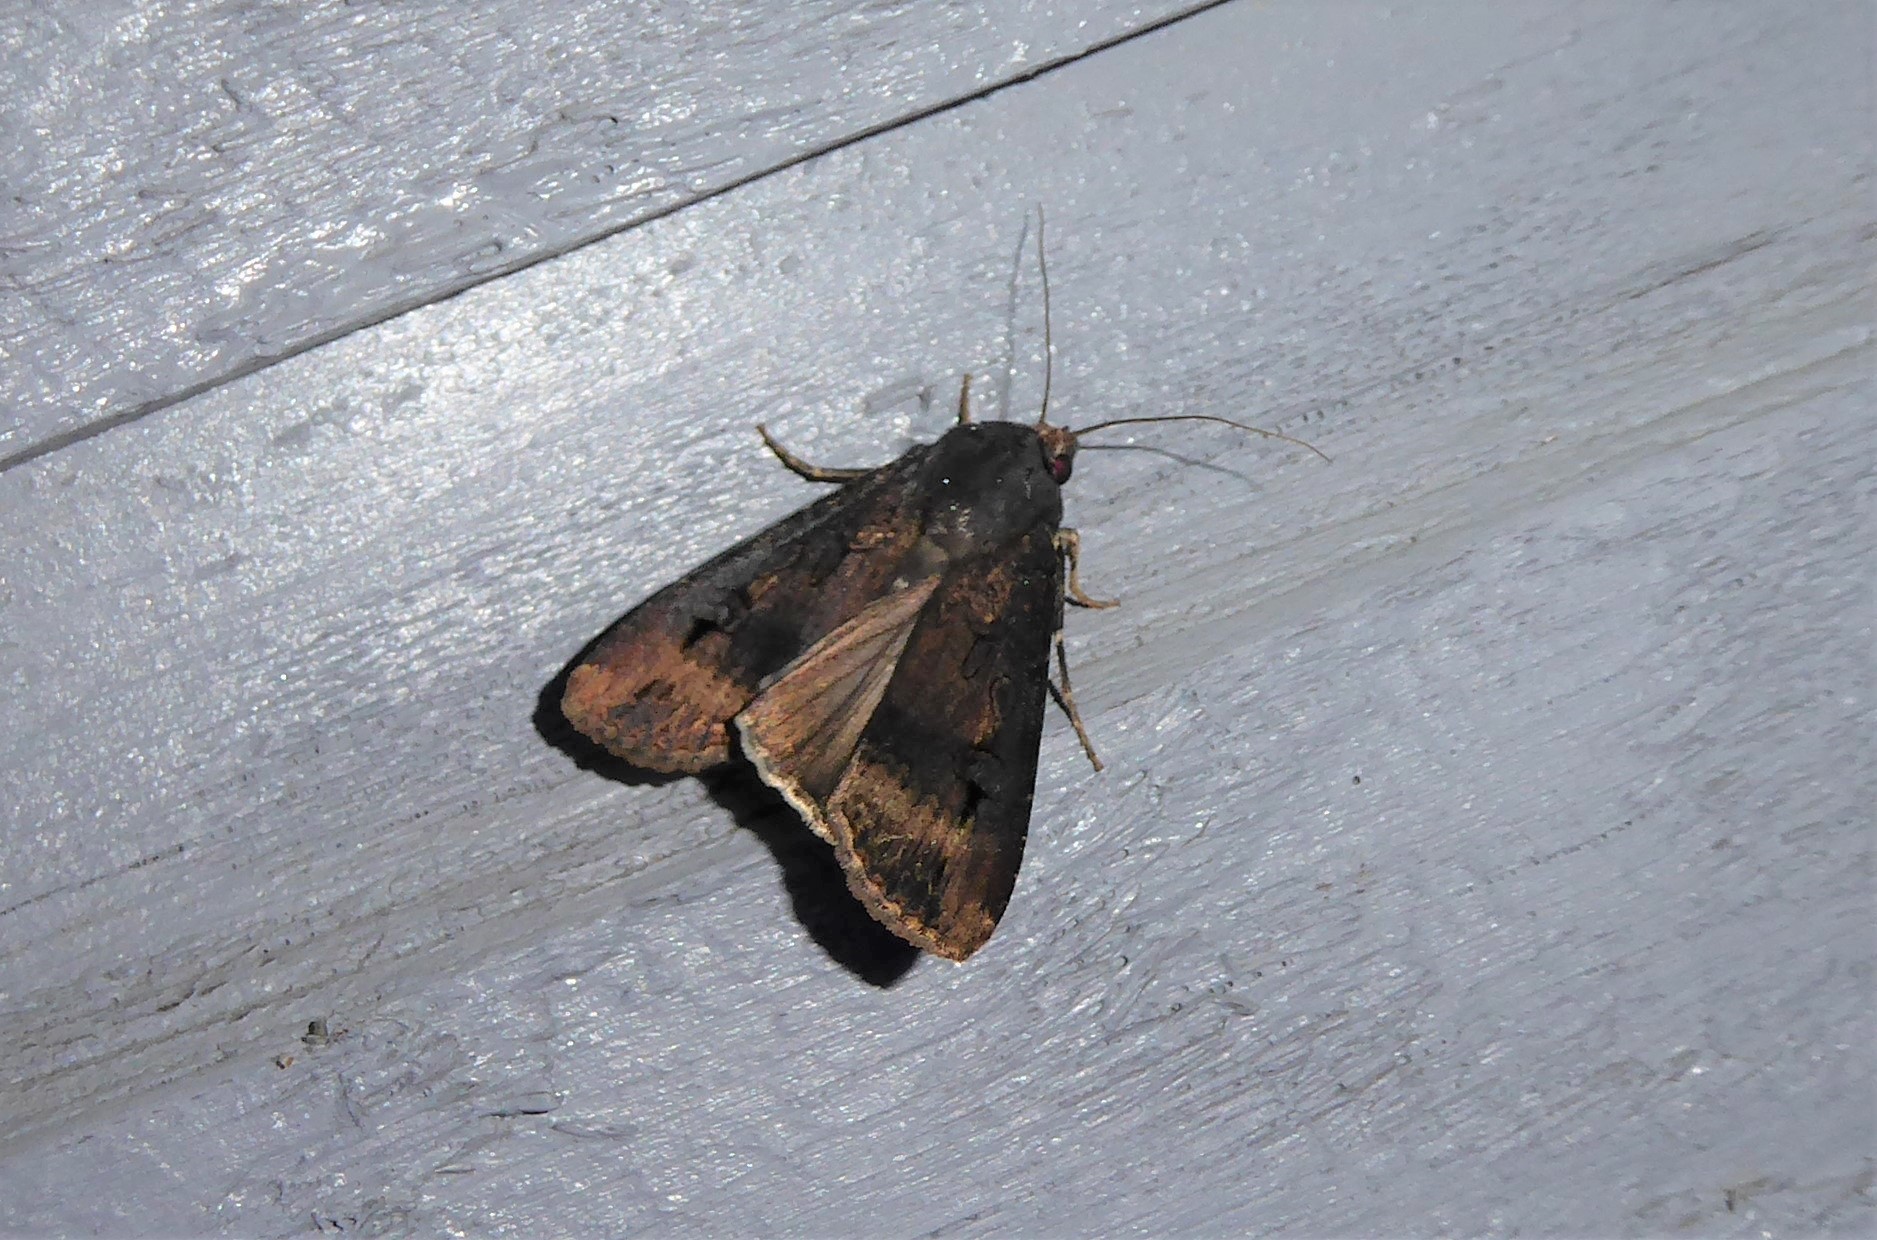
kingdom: Animalia
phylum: Arthropoda
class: Insecta
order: Lepidoptera
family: Noctuidae
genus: Agrotis
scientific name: Agrotis ipsilon
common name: Dark sword-grass
